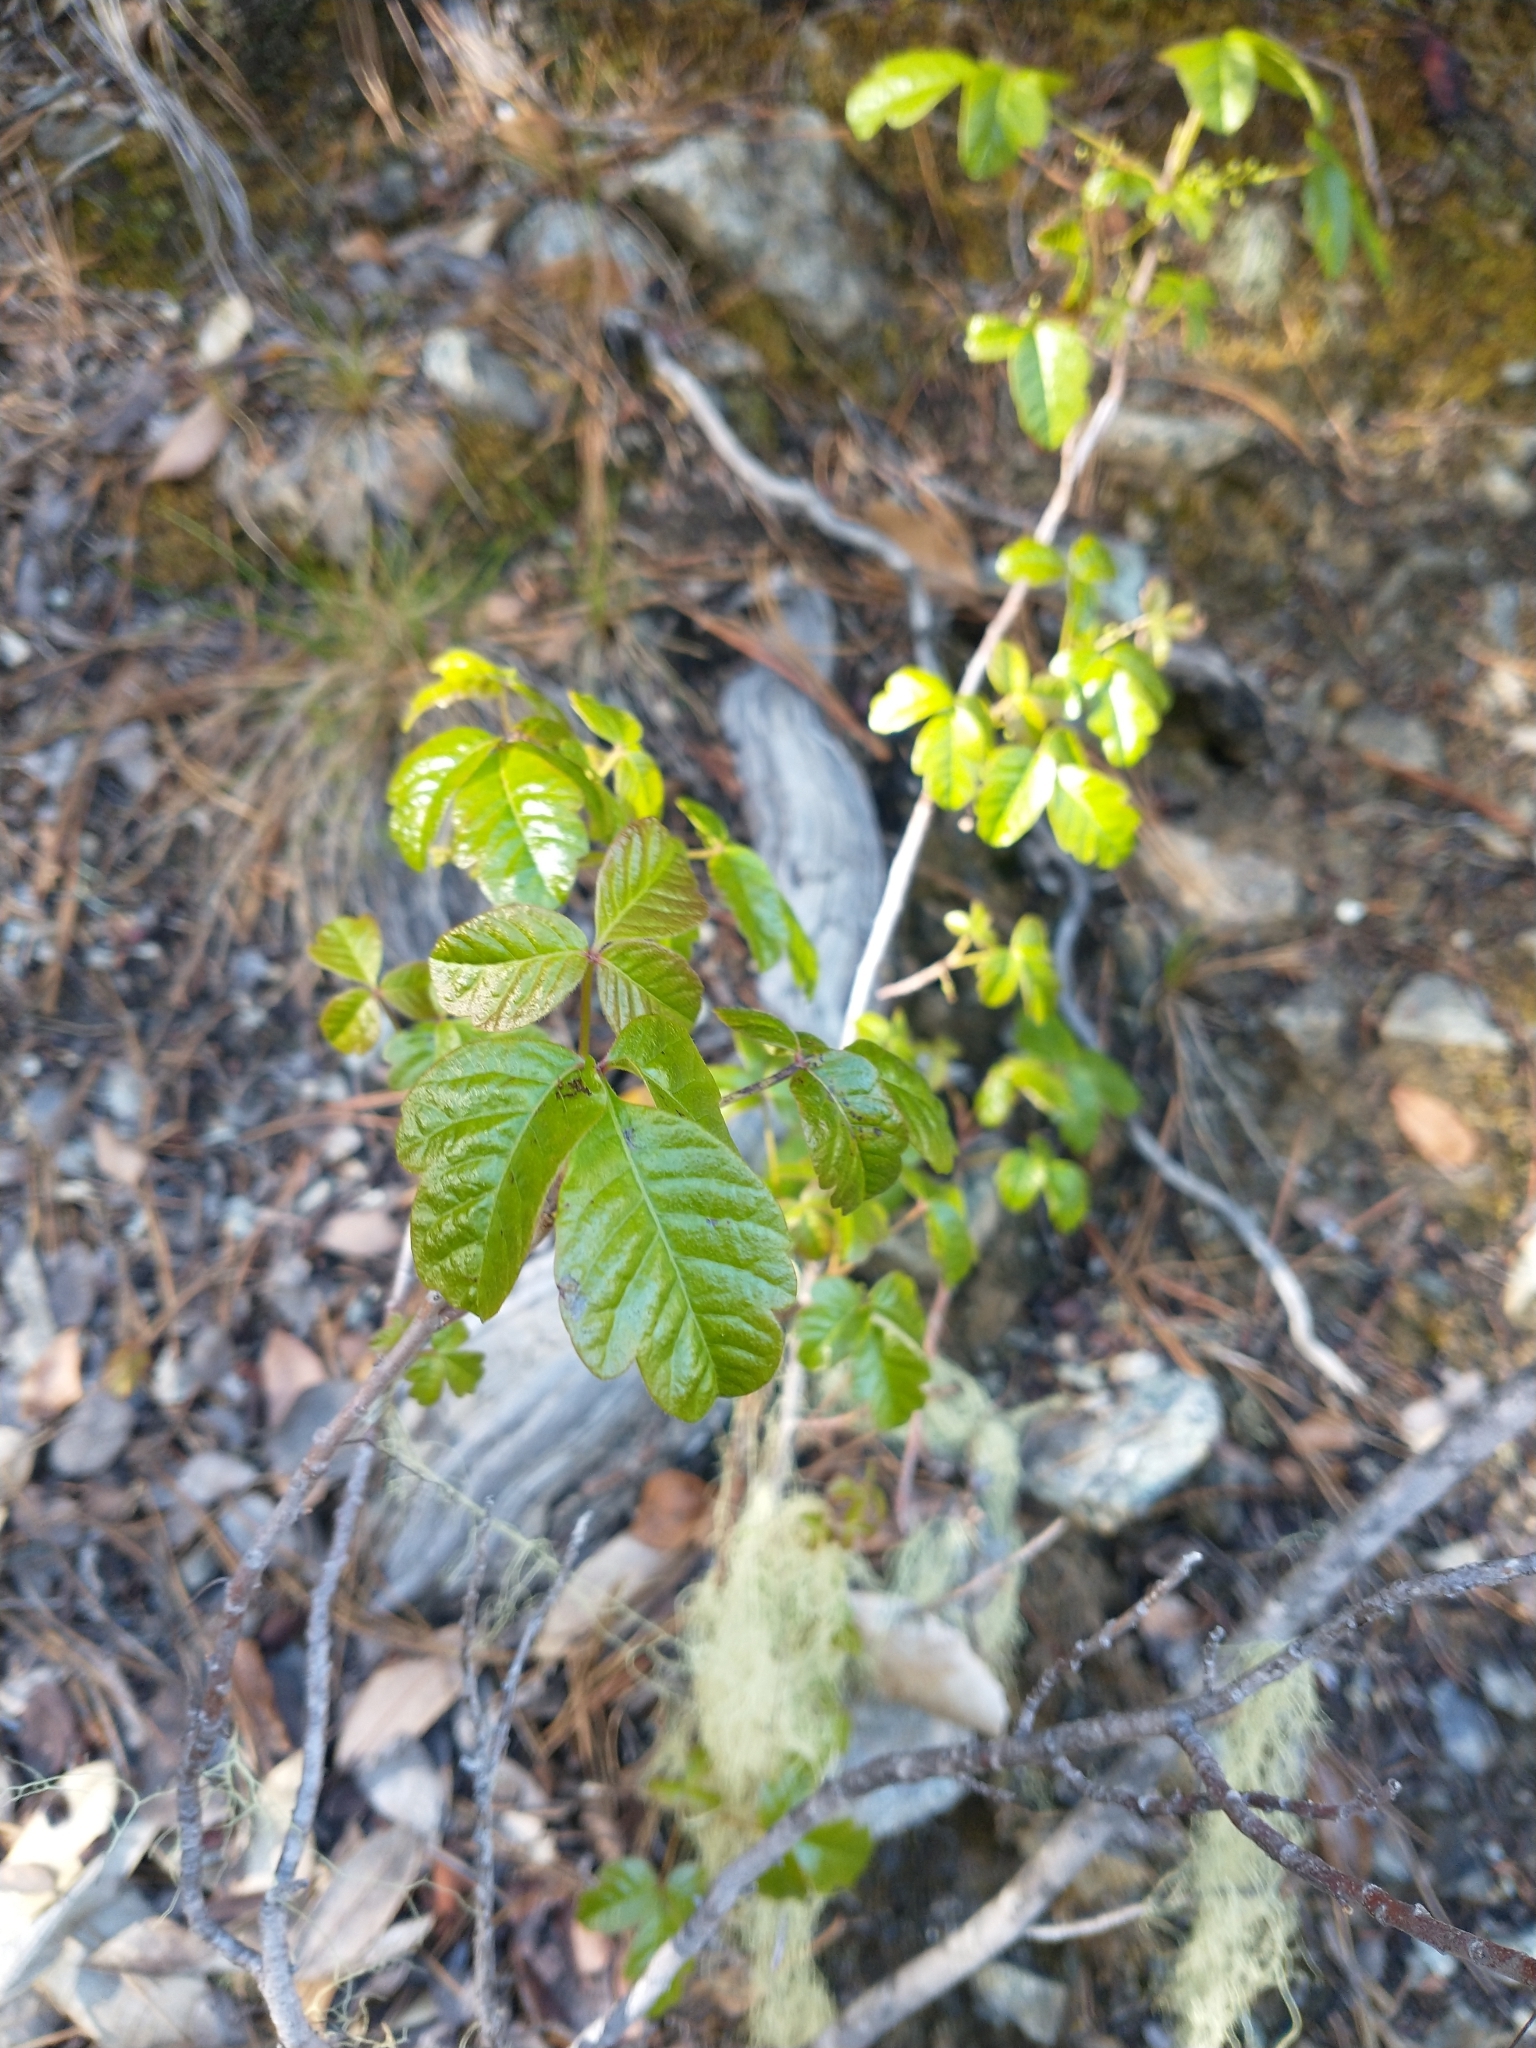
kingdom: Plantae
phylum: Tracheophyta
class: Magnoliopsida
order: Sapindales
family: Anacardiaceae
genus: Toxicodendron
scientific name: Toxicodendron diversilobum
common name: Pacific poison-oak
